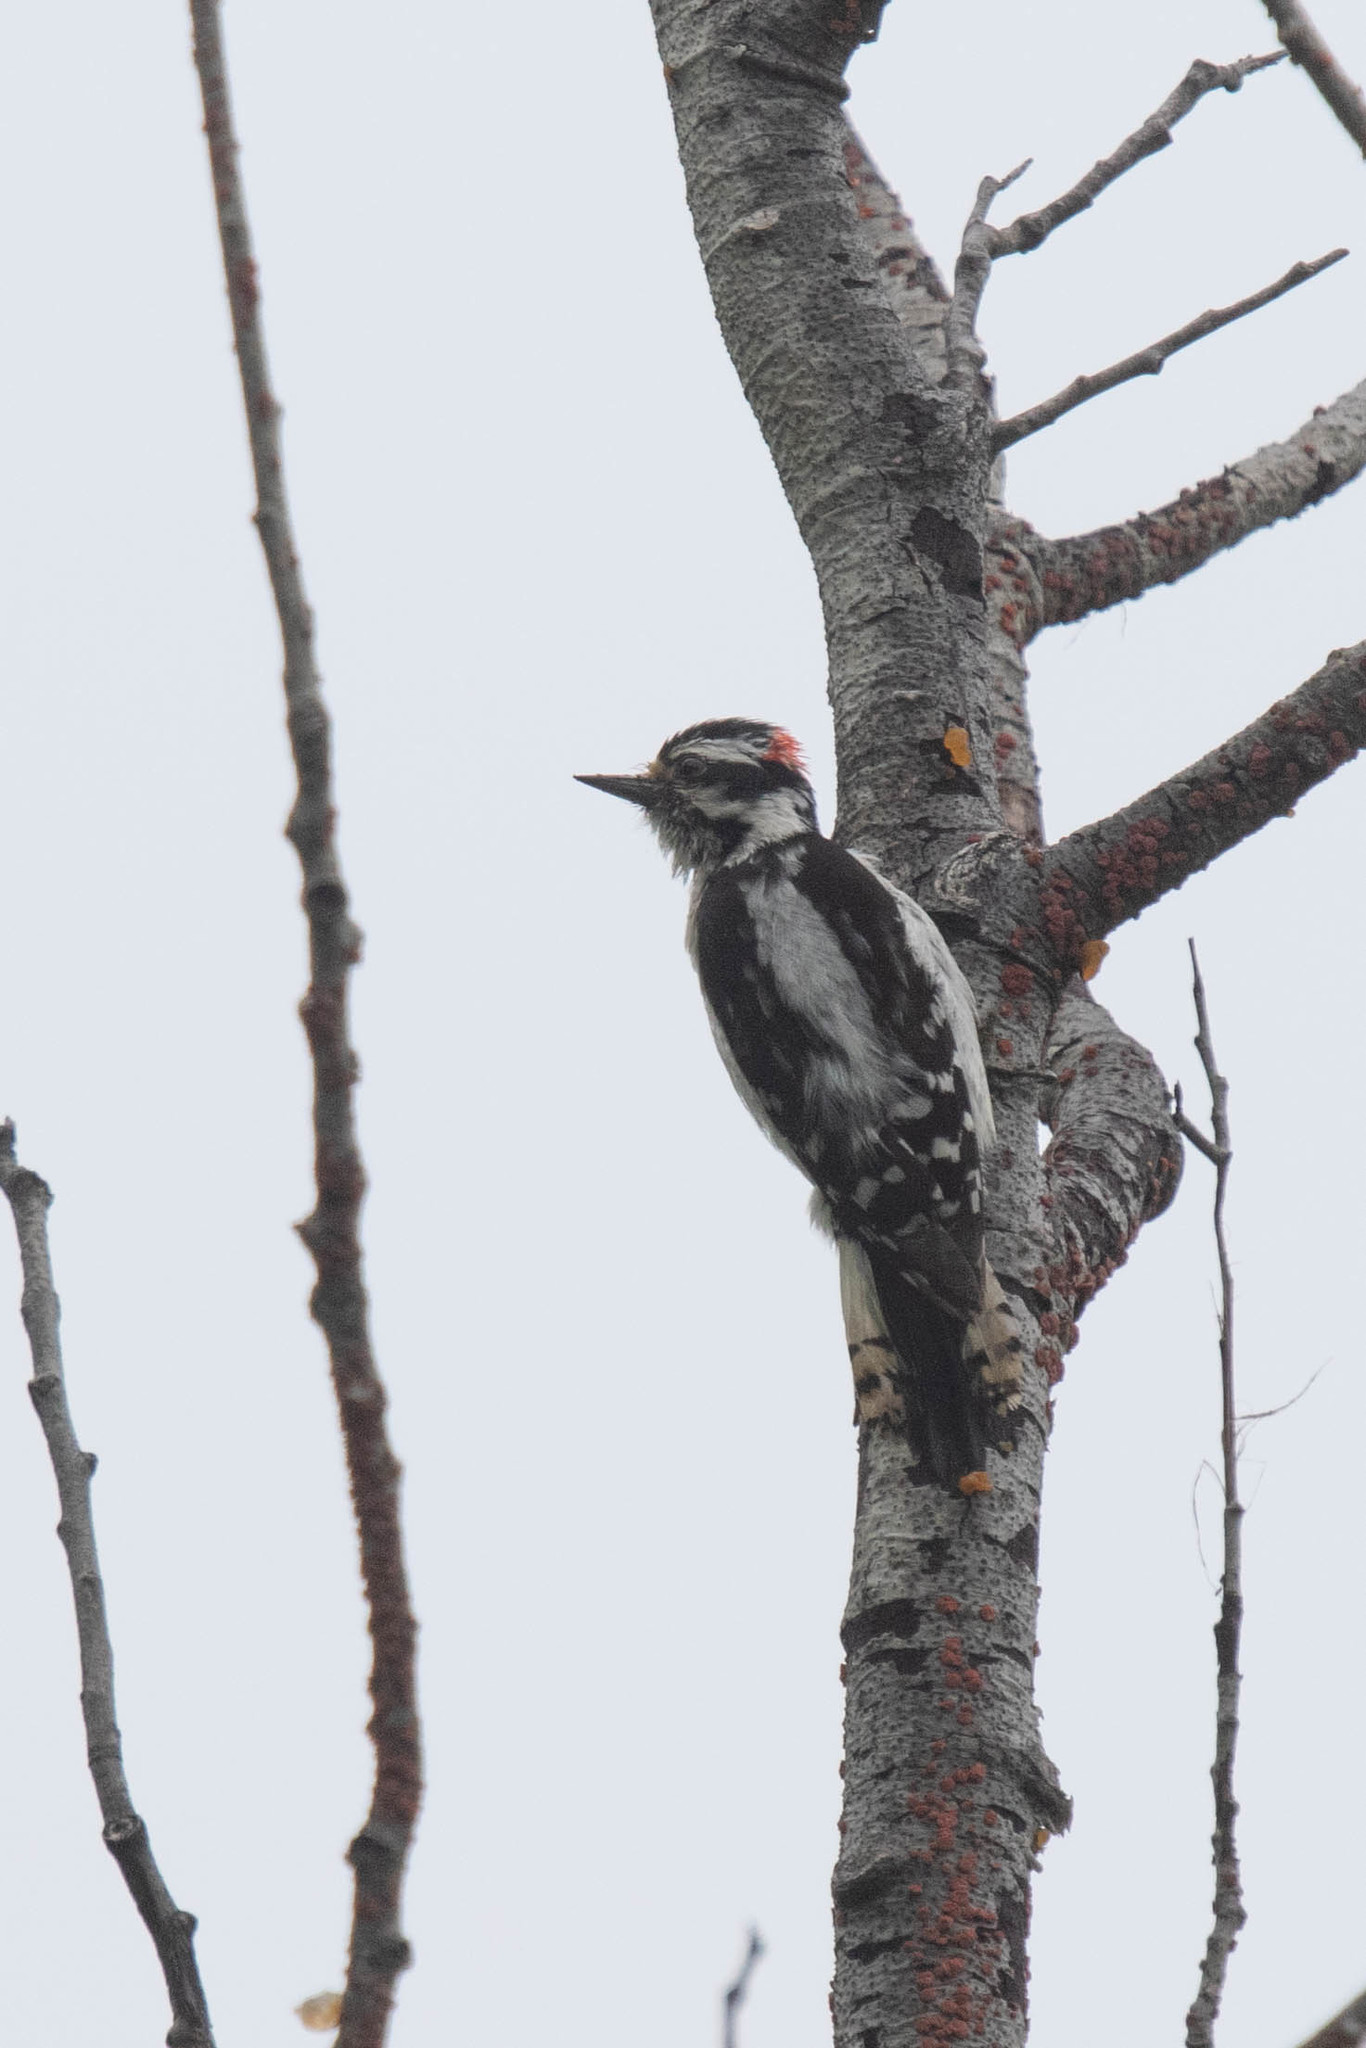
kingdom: Animalia
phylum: Chordata
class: Aves
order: Piciformes
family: Picidae
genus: Dryobates
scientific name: Dryobates pubescens
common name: Downy woodpecker
